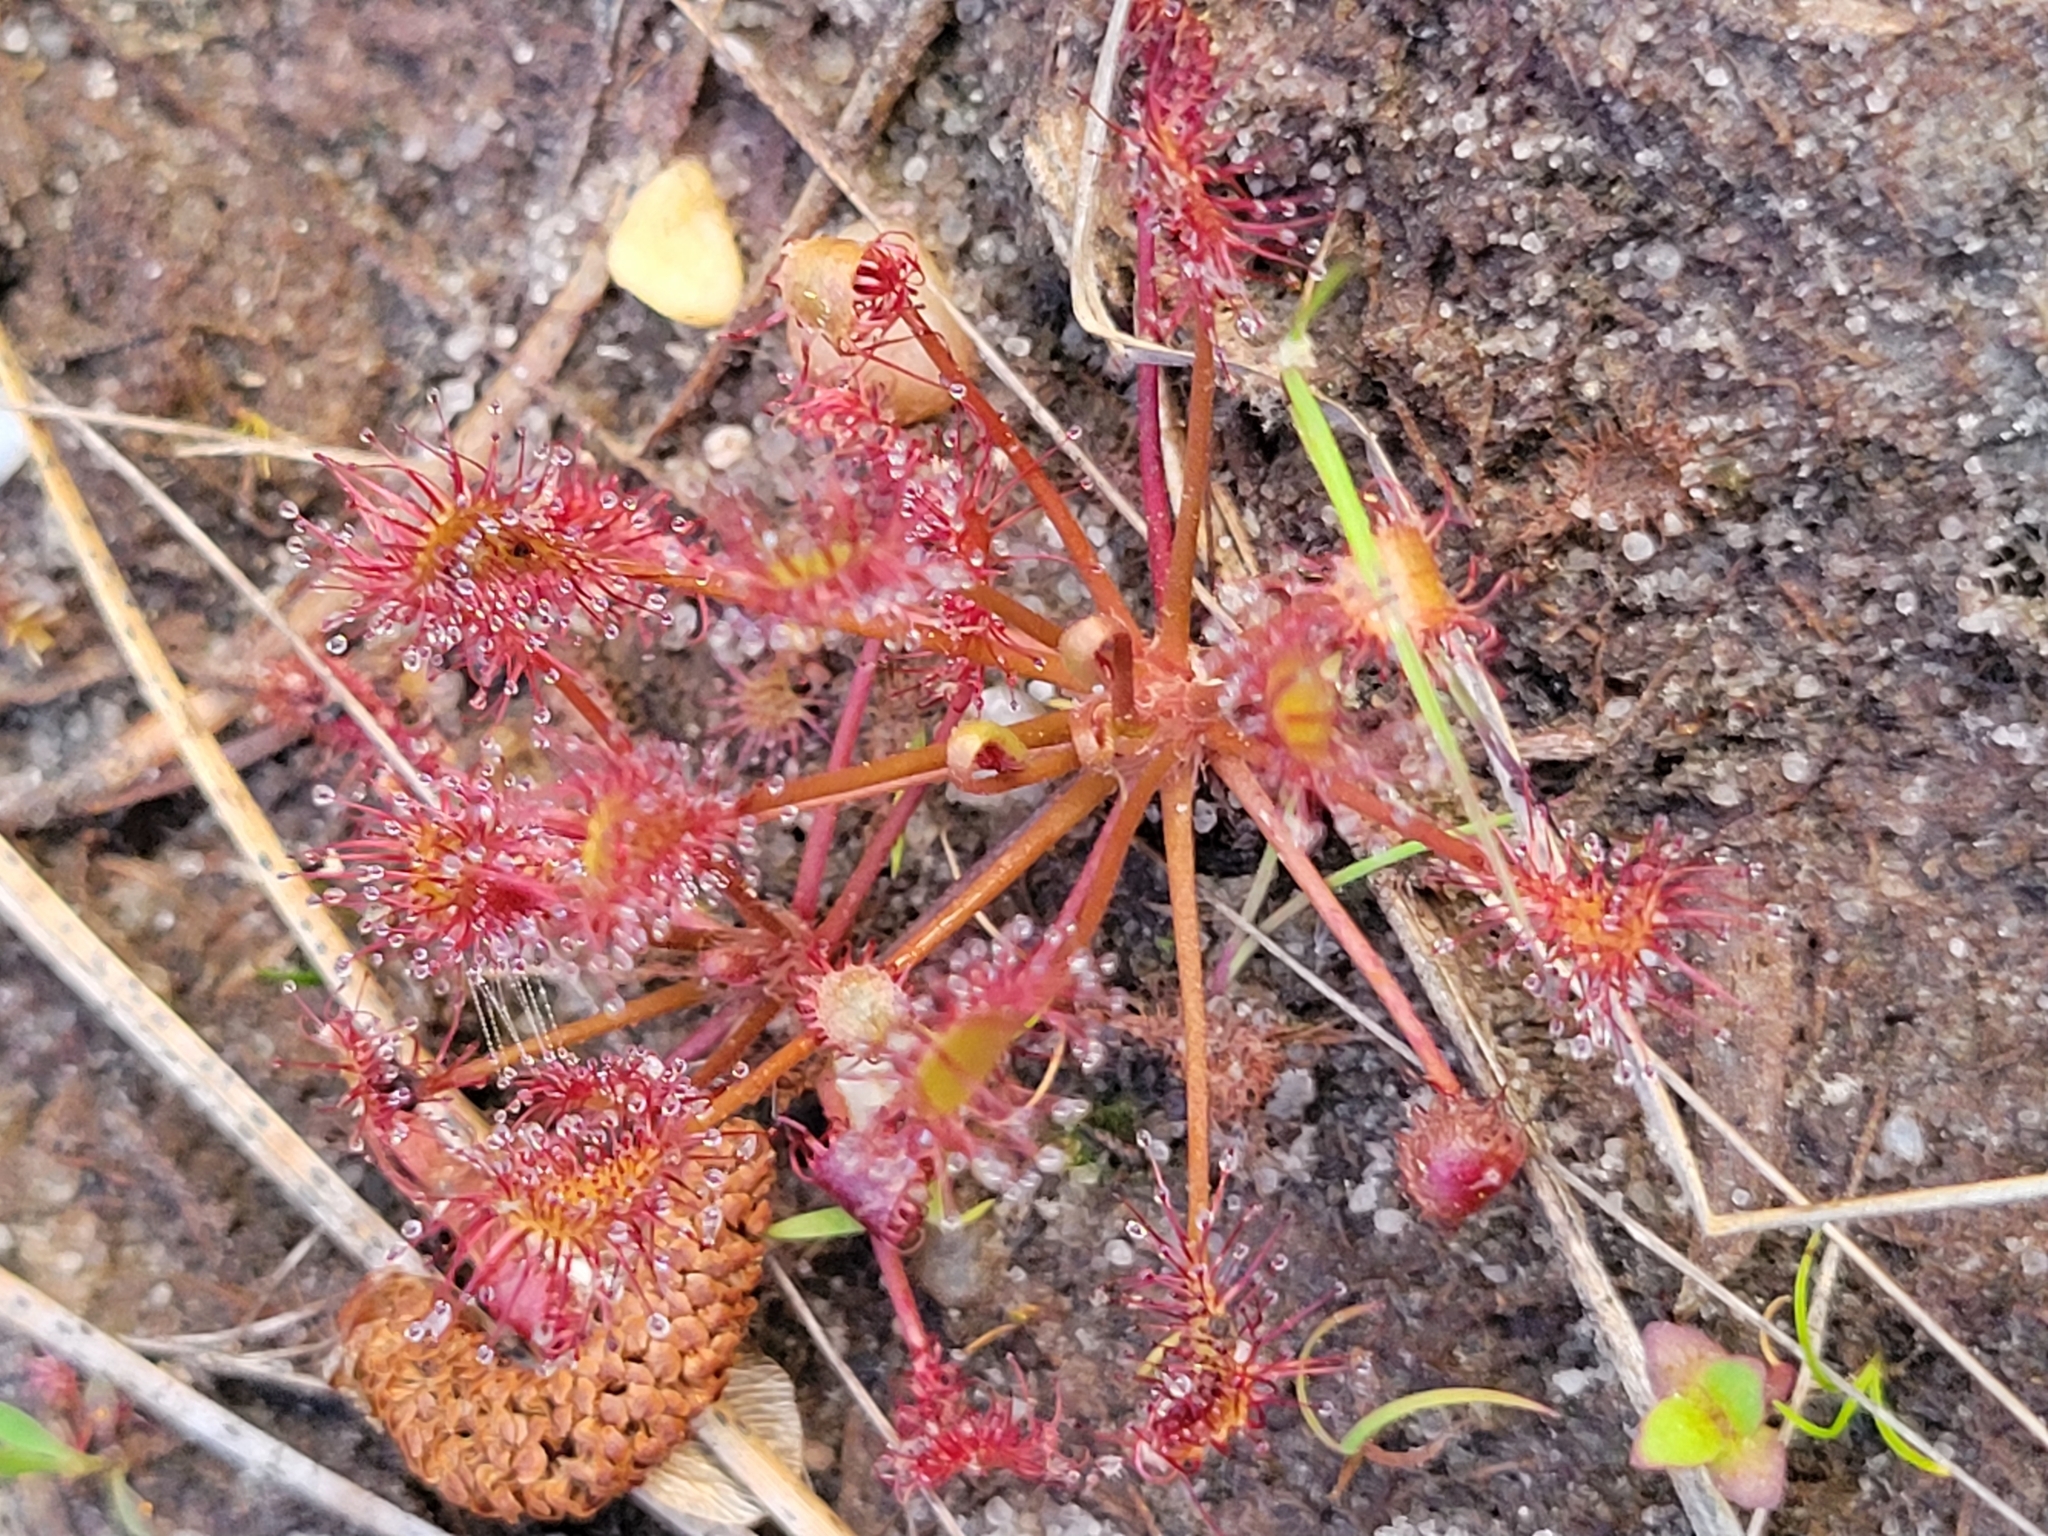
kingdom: Plantae
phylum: Tracheophyta
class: Magnoliopsida
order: Caryophyllales
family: Droseraceae
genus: Drosera
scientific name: Drosera intermedia
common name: Oblong-leaved sundew
